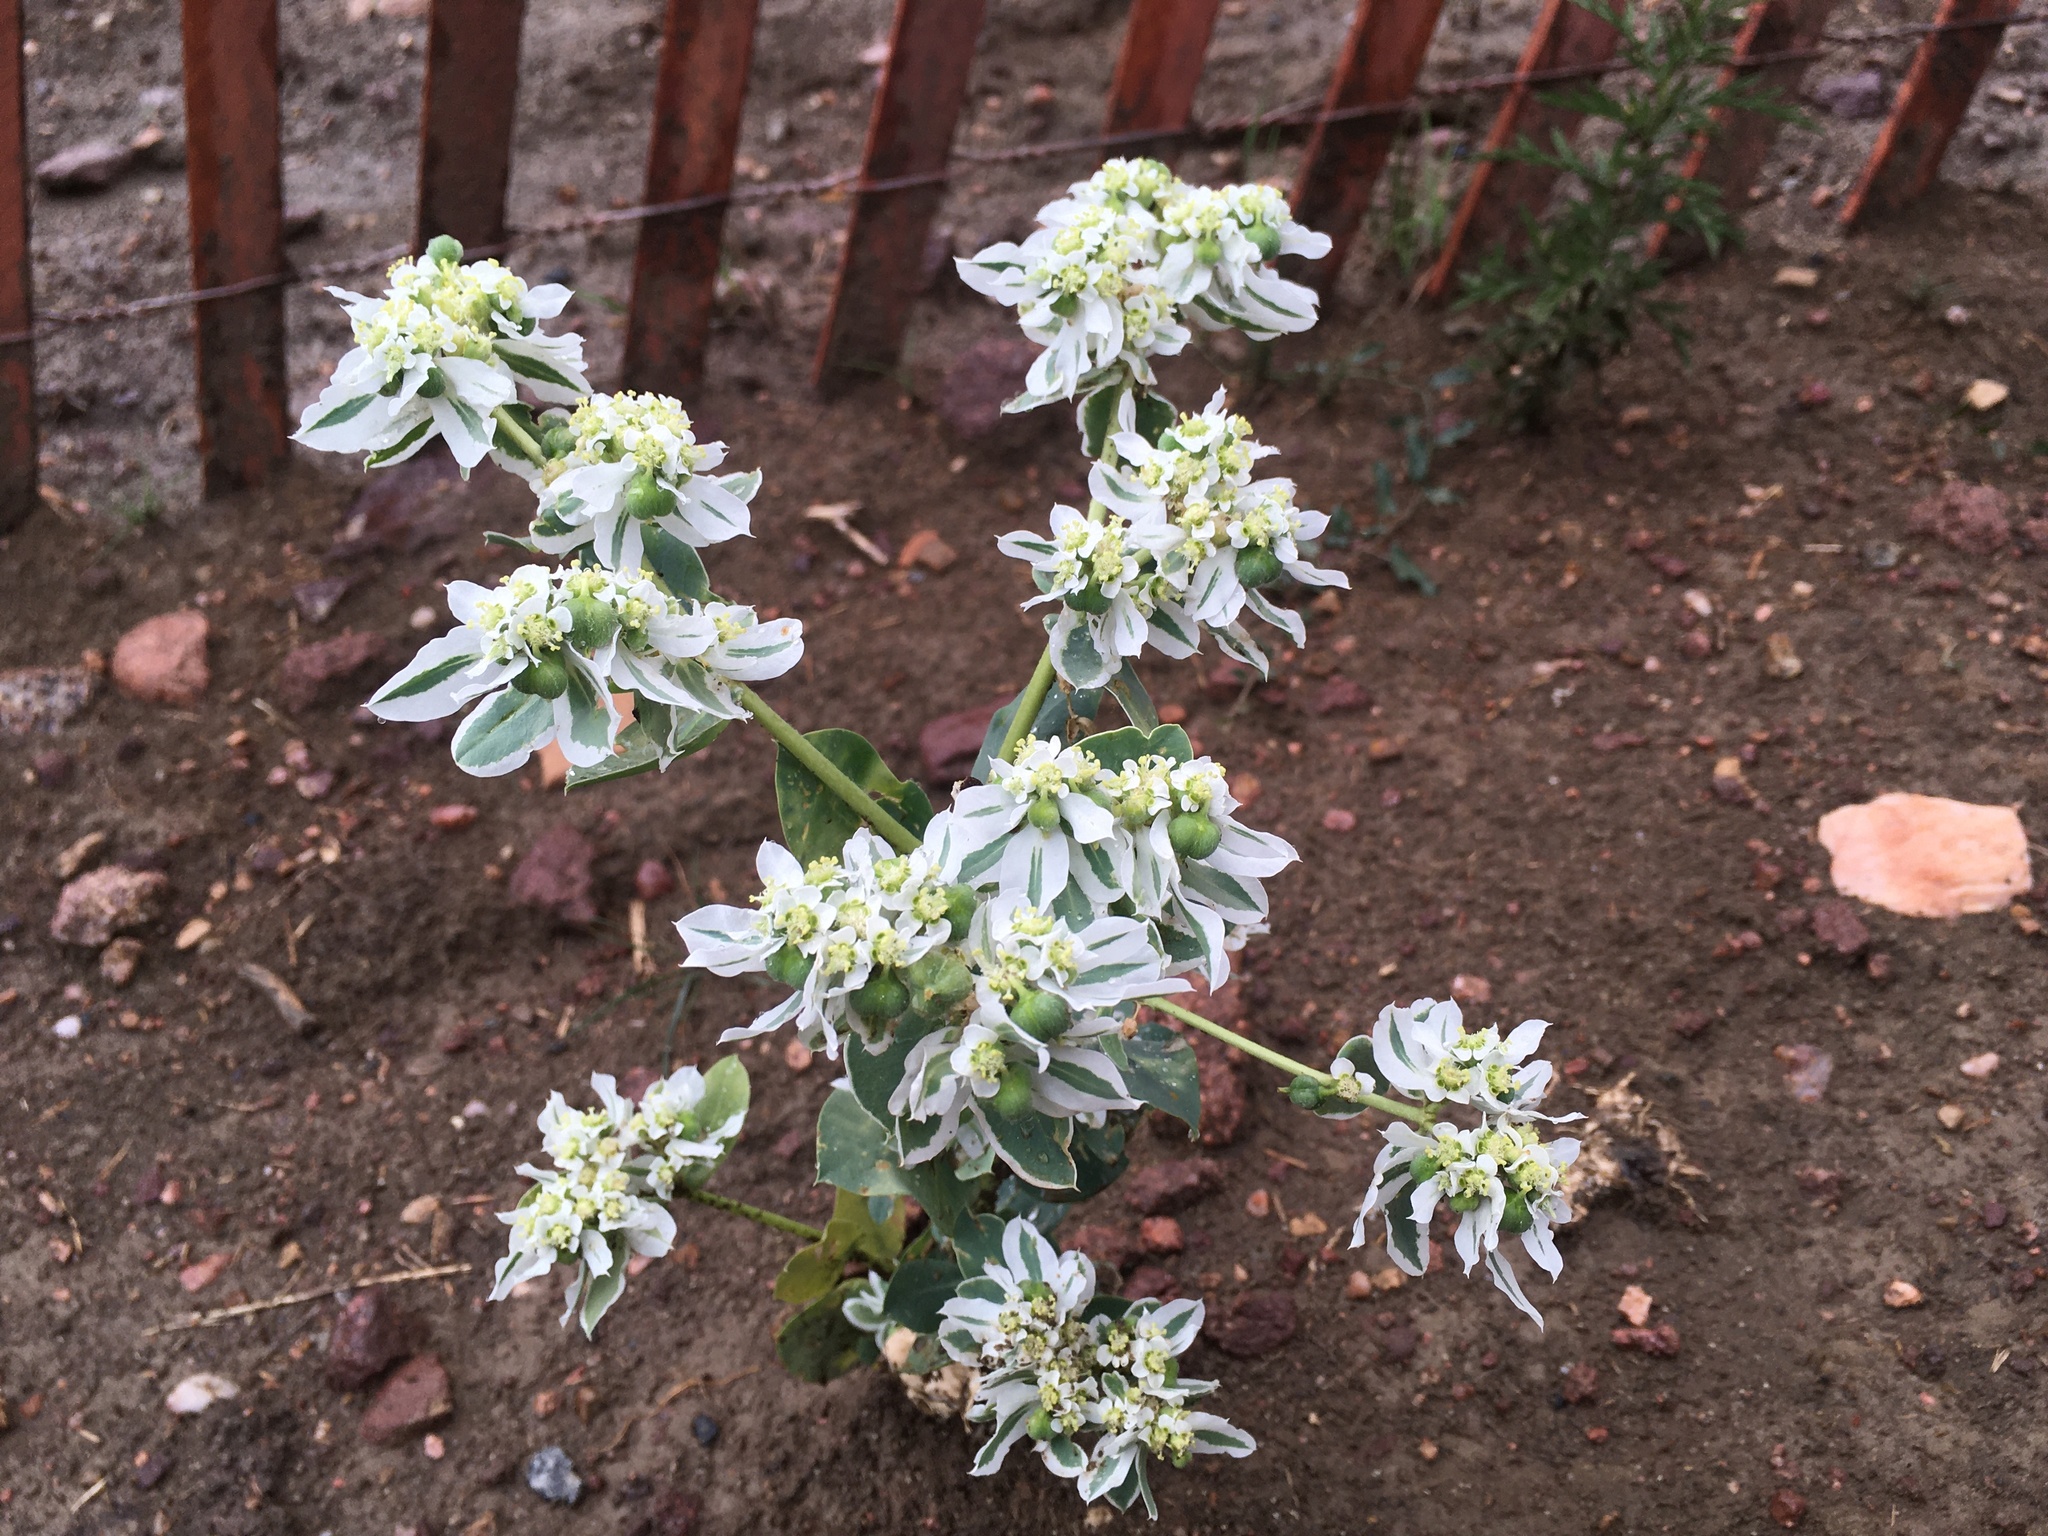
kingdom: Plantae
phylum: Tracheophyta
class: Magnoliopsida
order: Malpighiales
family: Euphorbiaceae
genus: Euphorbia
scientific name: Euphorbia marginata
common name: Ghostweed
